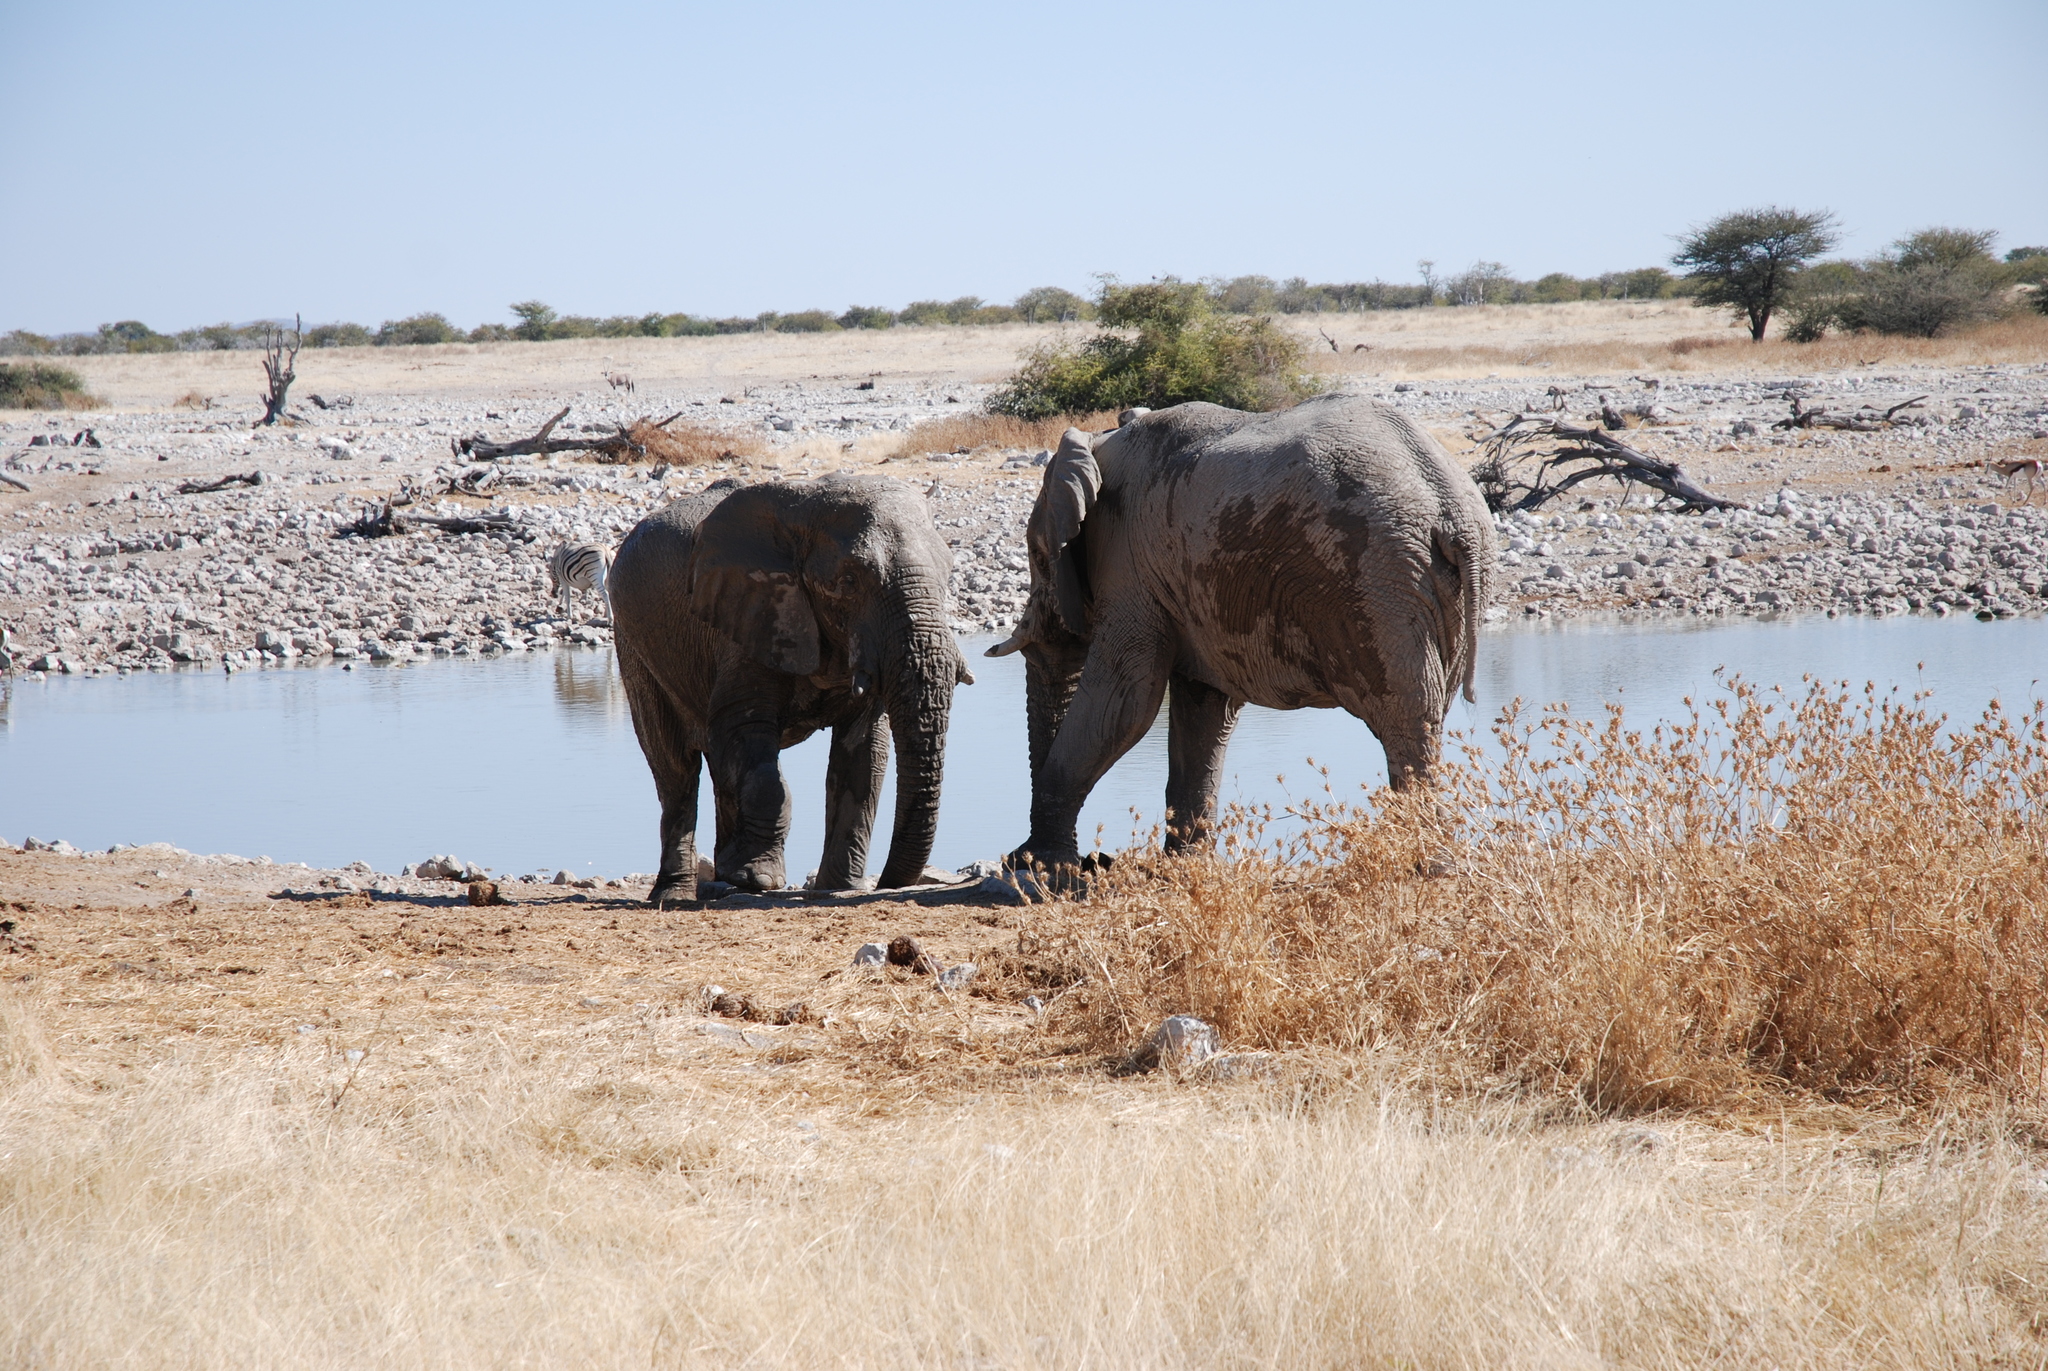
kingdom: Animalia
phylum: Chordata
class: Mammalia
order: Proboscidea
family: Elephantidae
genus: Loxodonta
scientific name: Loxodonta africana
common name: African elephant
